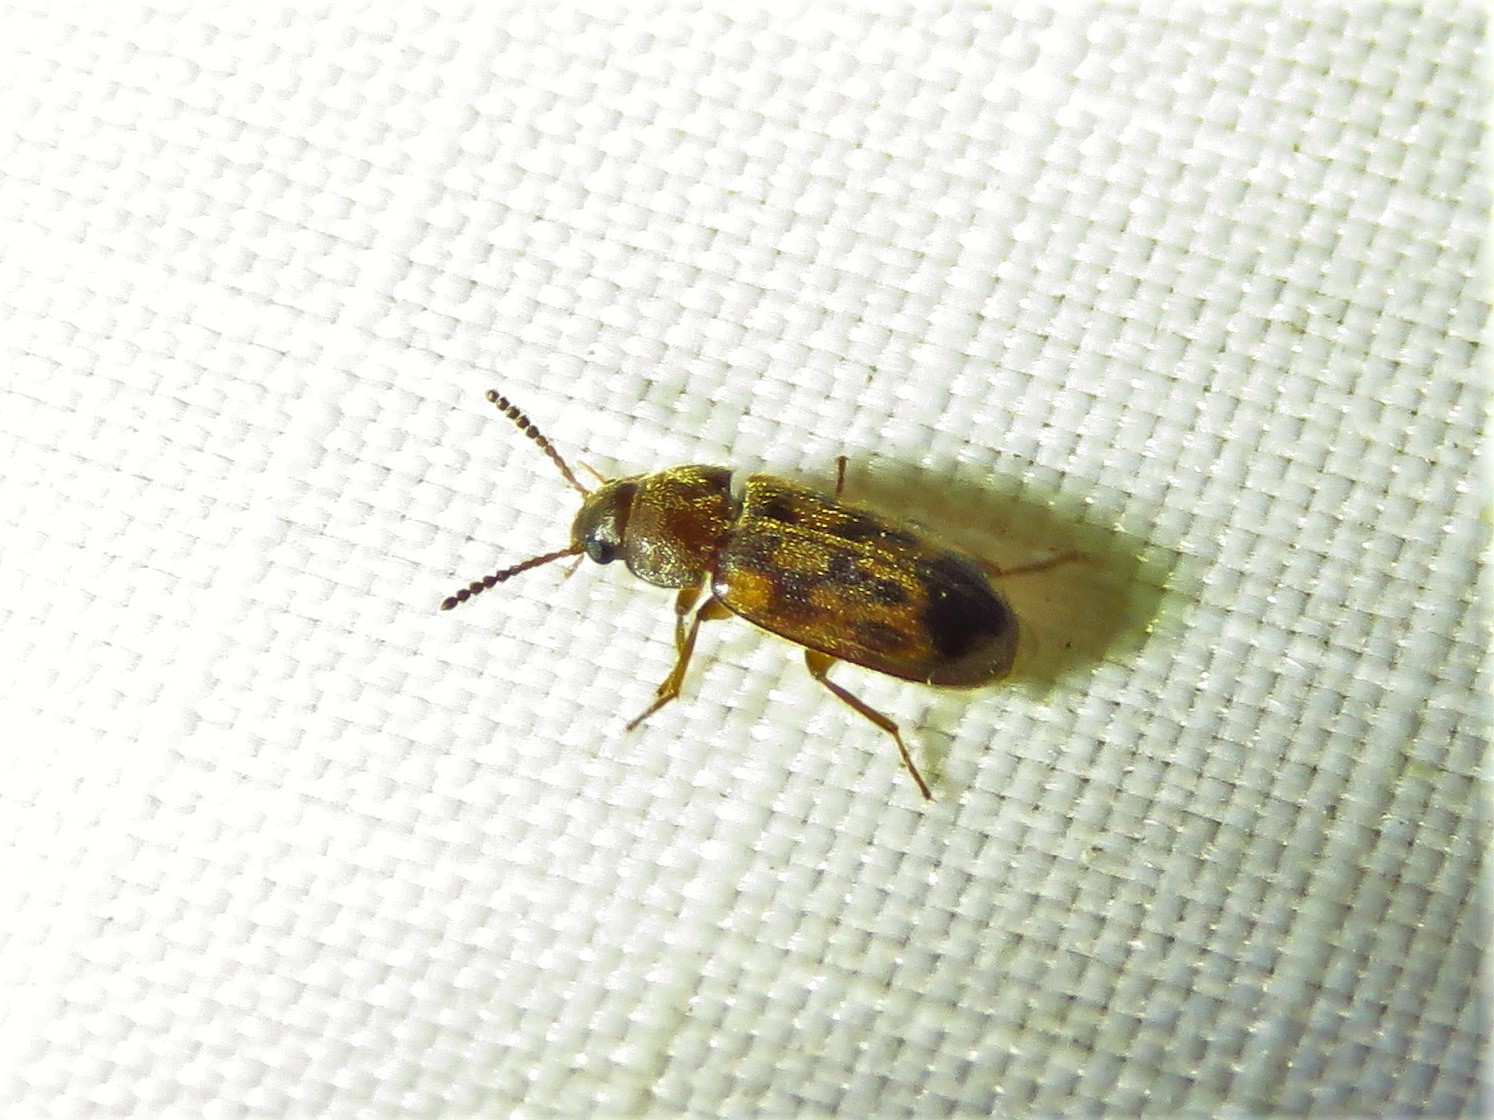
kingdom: Animalia
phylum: Arthropoda
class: Insecta
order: Coleoptera
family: Mycetophagidae
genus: Mycetophagus
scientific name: Mycetophagus pluripunctatus
